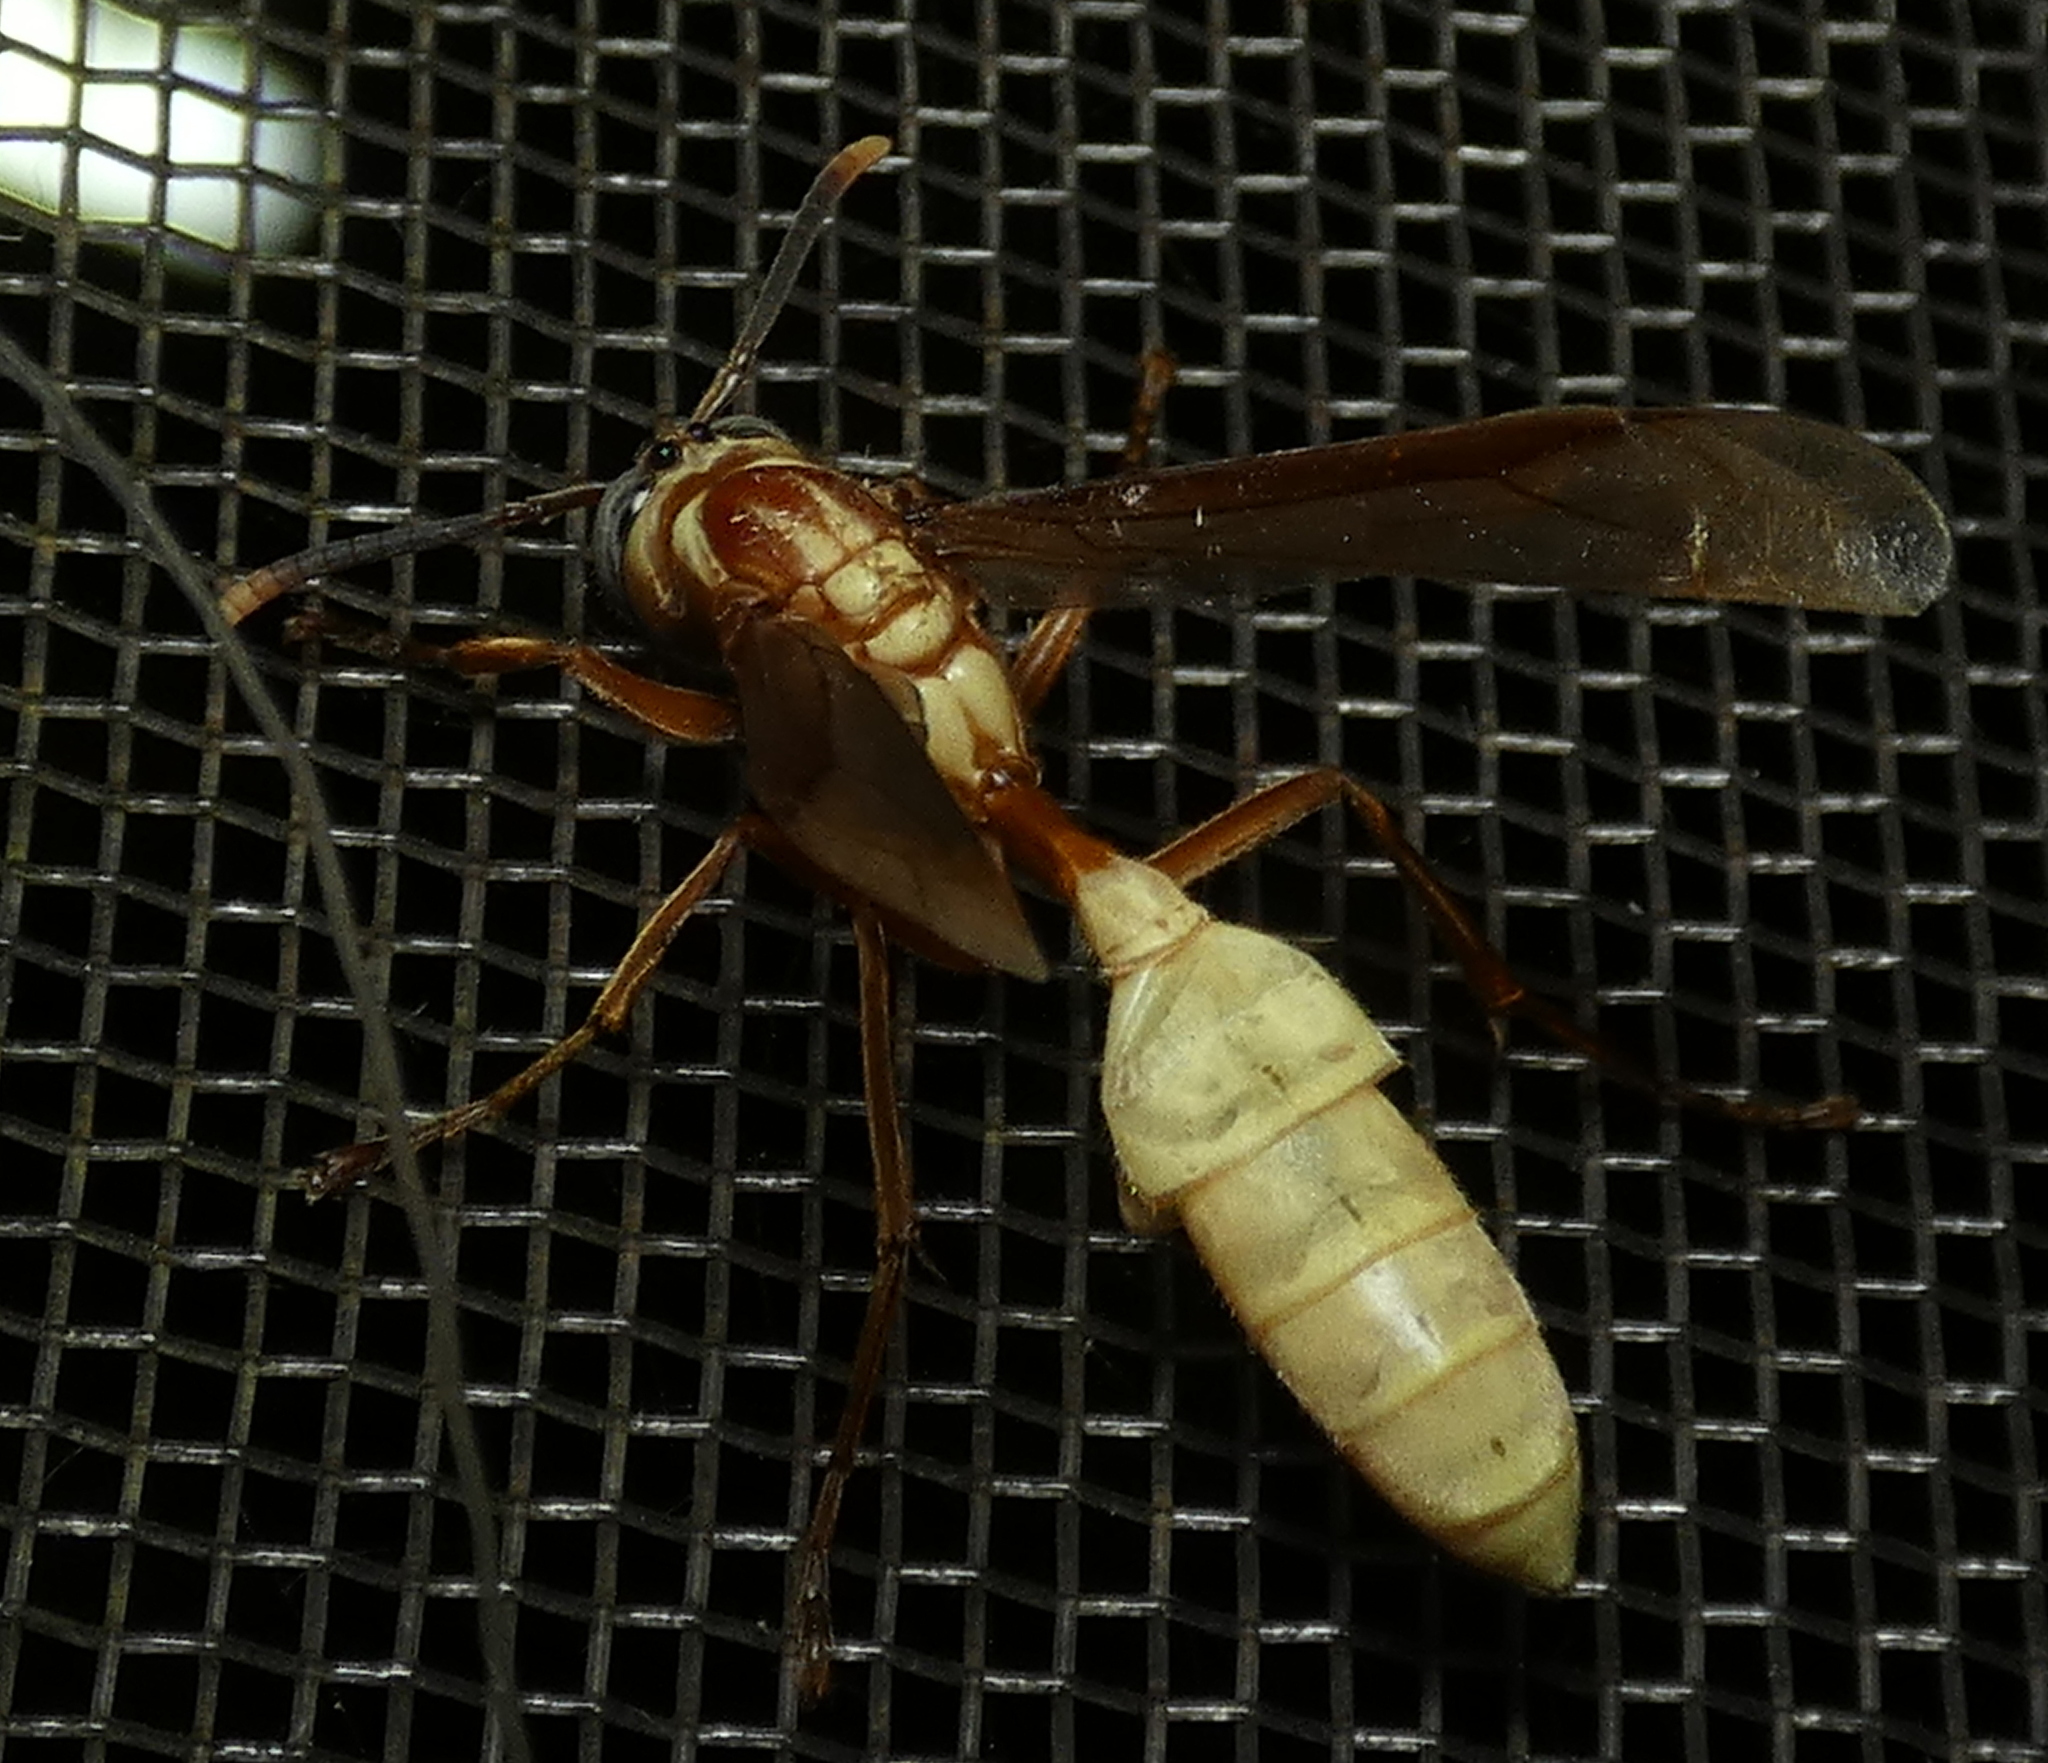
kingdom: Animalia
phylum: Arthropoda
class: Insecta
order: Hymenoptera
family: Vespidae
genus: Apoica
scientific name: Apoica flavissima
